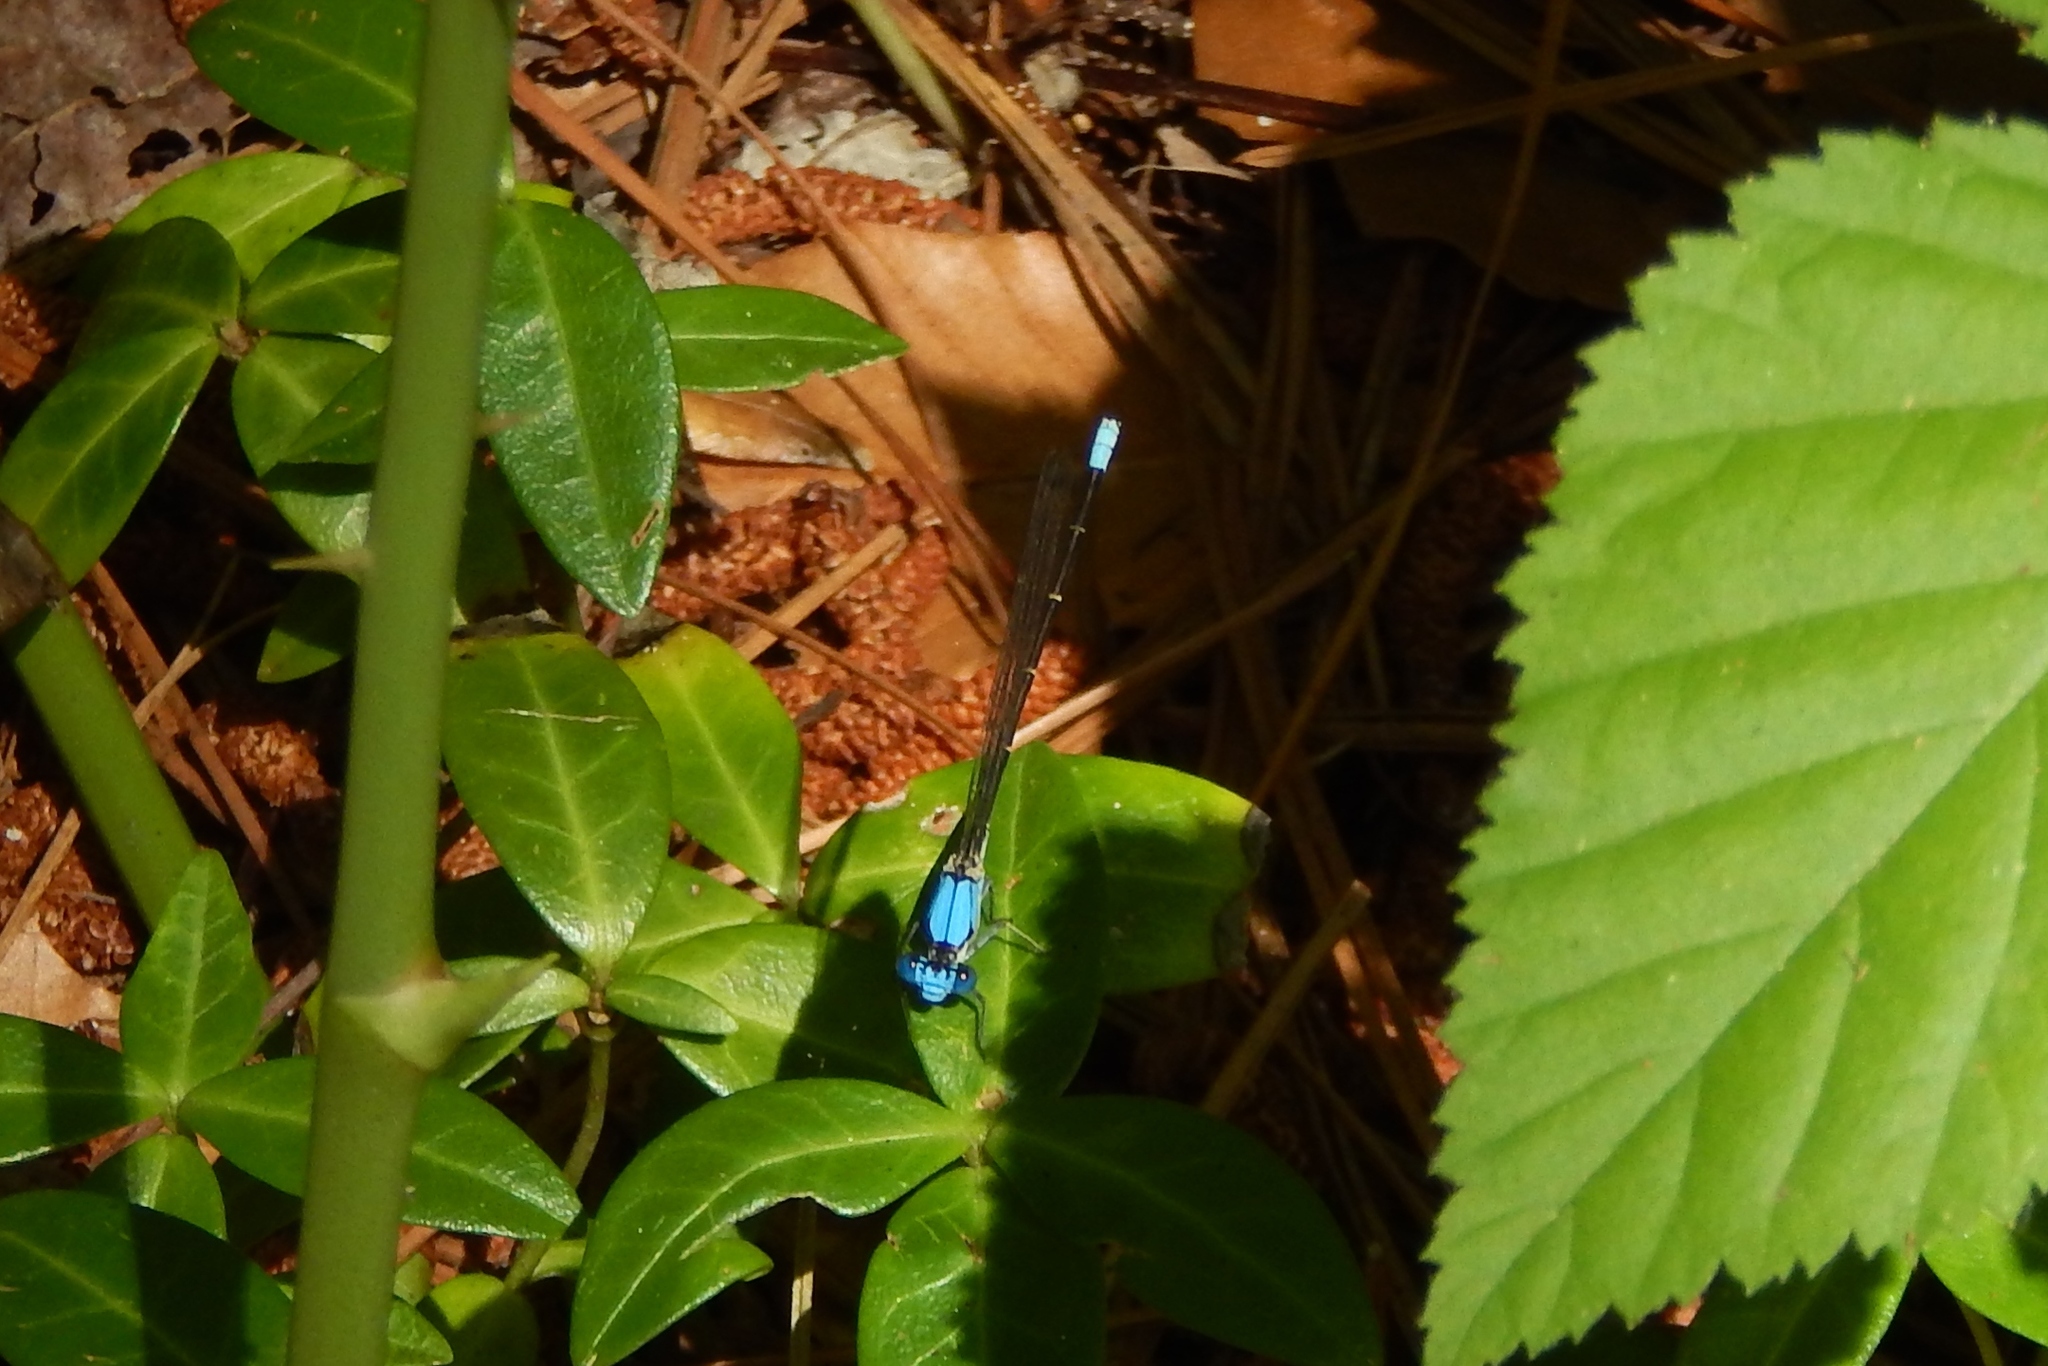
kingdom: Animalia
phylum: Arthropoda
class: Insecta
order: Odonata
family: Coenagrionidae
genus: Argia
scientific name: Argia apicalis
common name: Blue-fronted dancer
